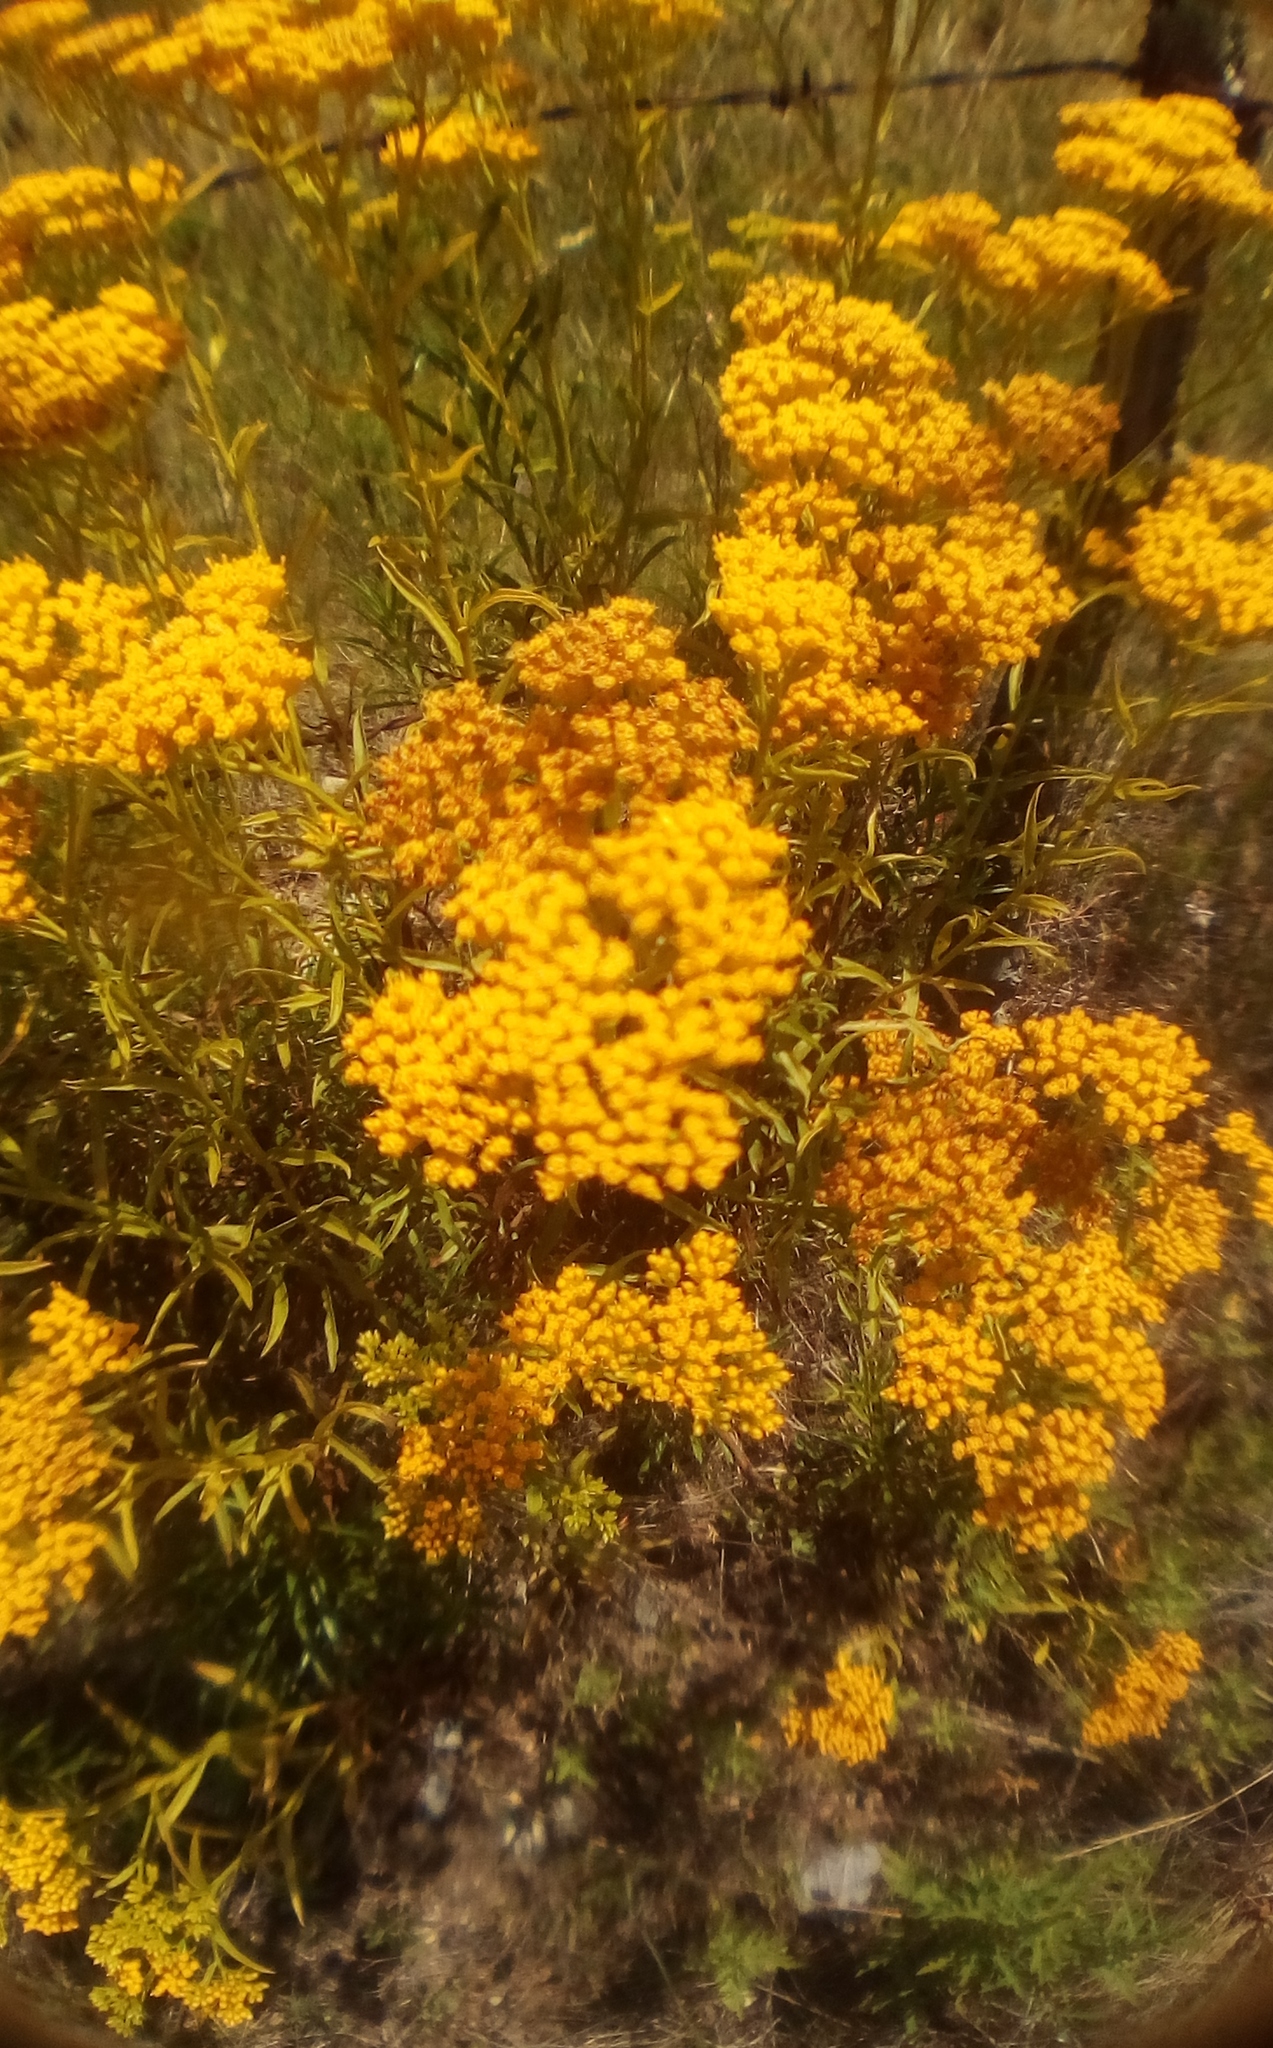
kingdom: Plantae
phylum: Tracheophyta
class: Magnoliopsida
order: Asterales
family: Asteraceae
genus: Gymnosperma
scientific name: Gymnosperma glutinosum
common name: Gumhead
